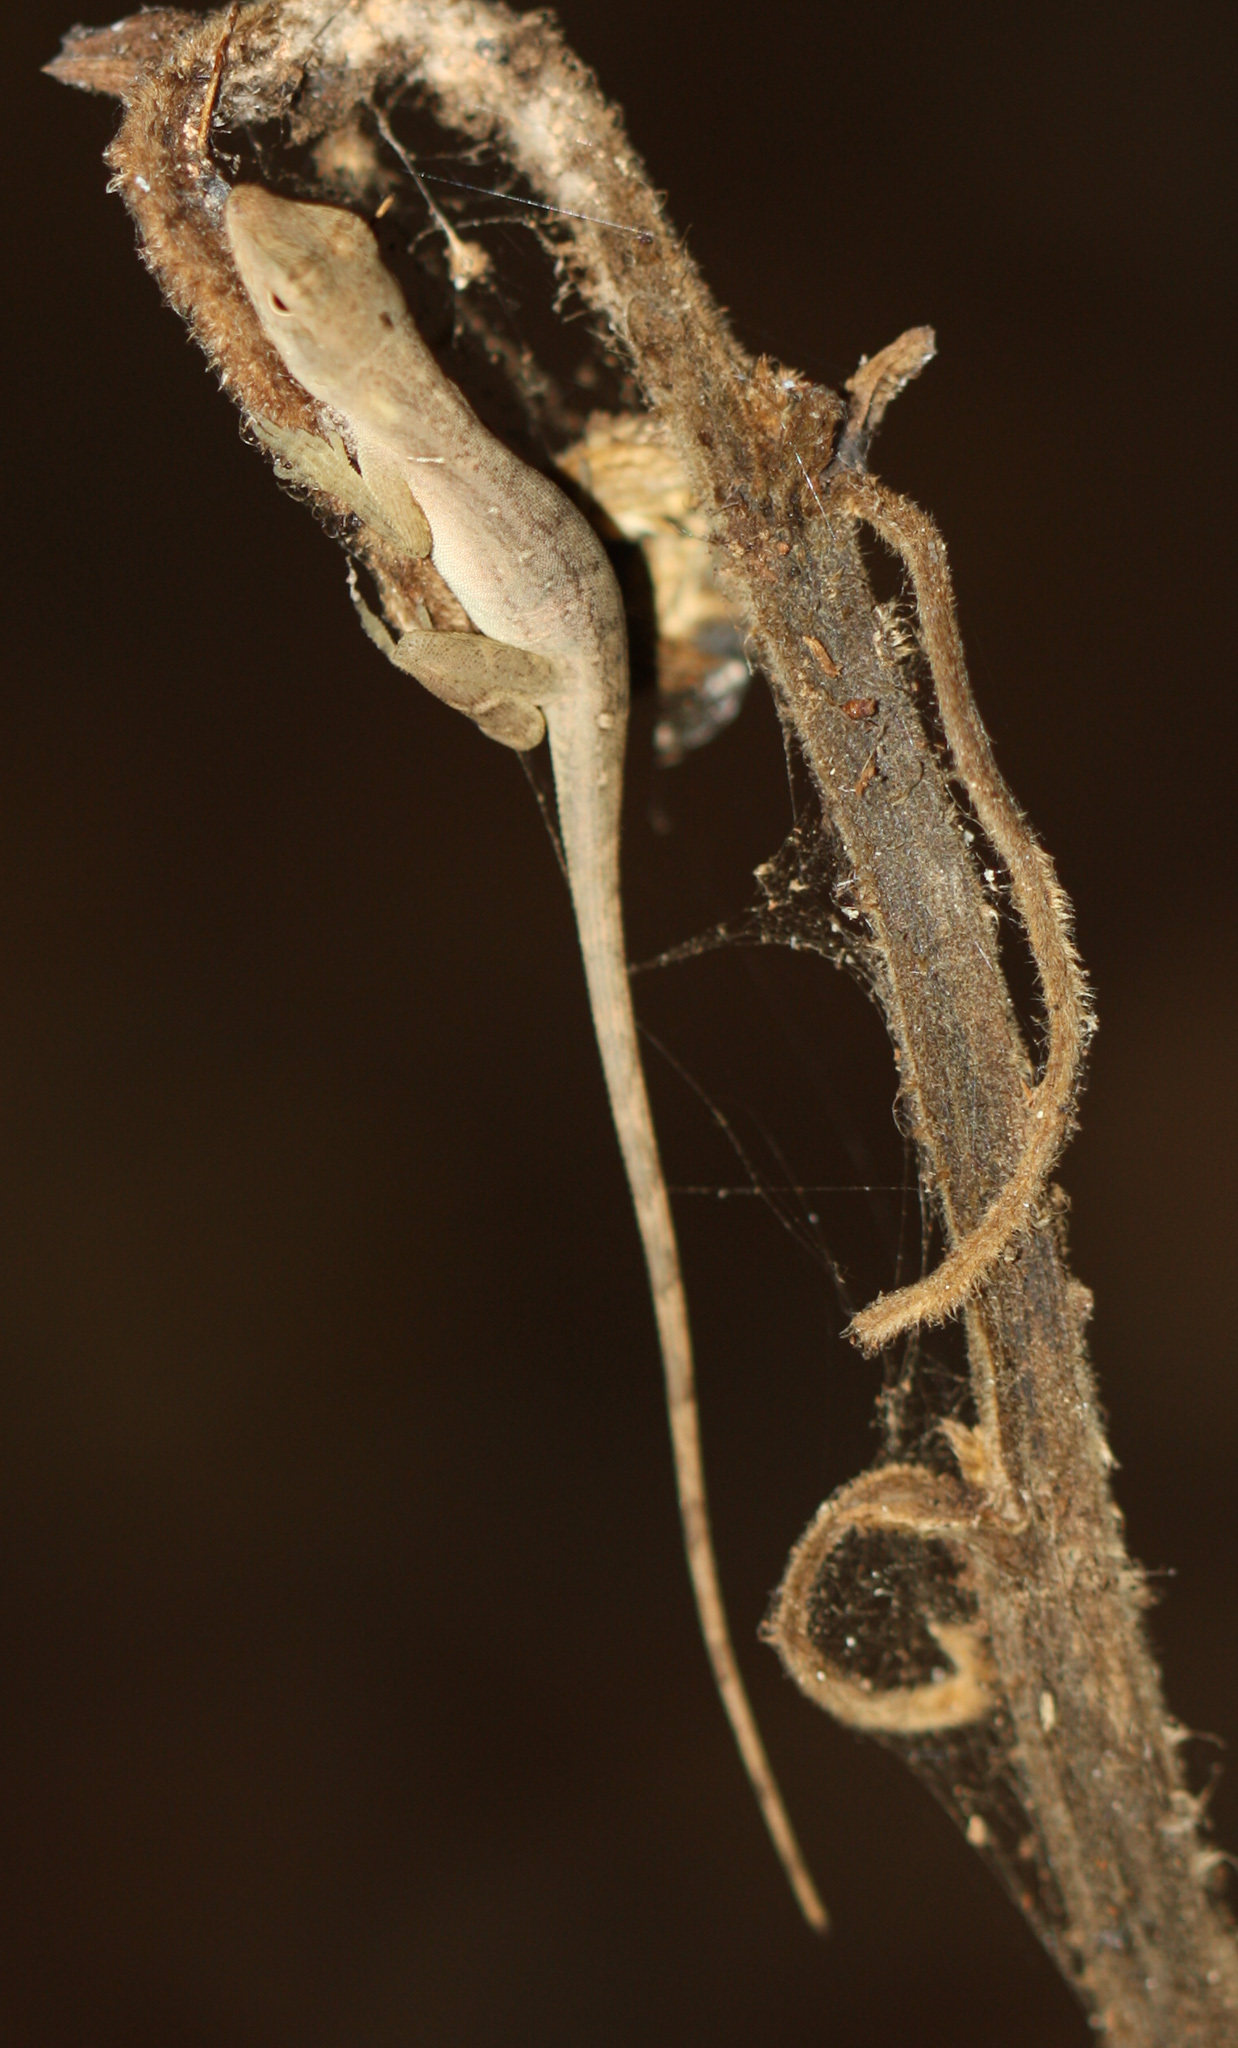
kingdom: Animalia
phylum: Chordata
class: Squamata
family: Dactyloidae
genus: Anolis
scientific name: Anolis unilobatus
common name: Blue-spotted fan anole
